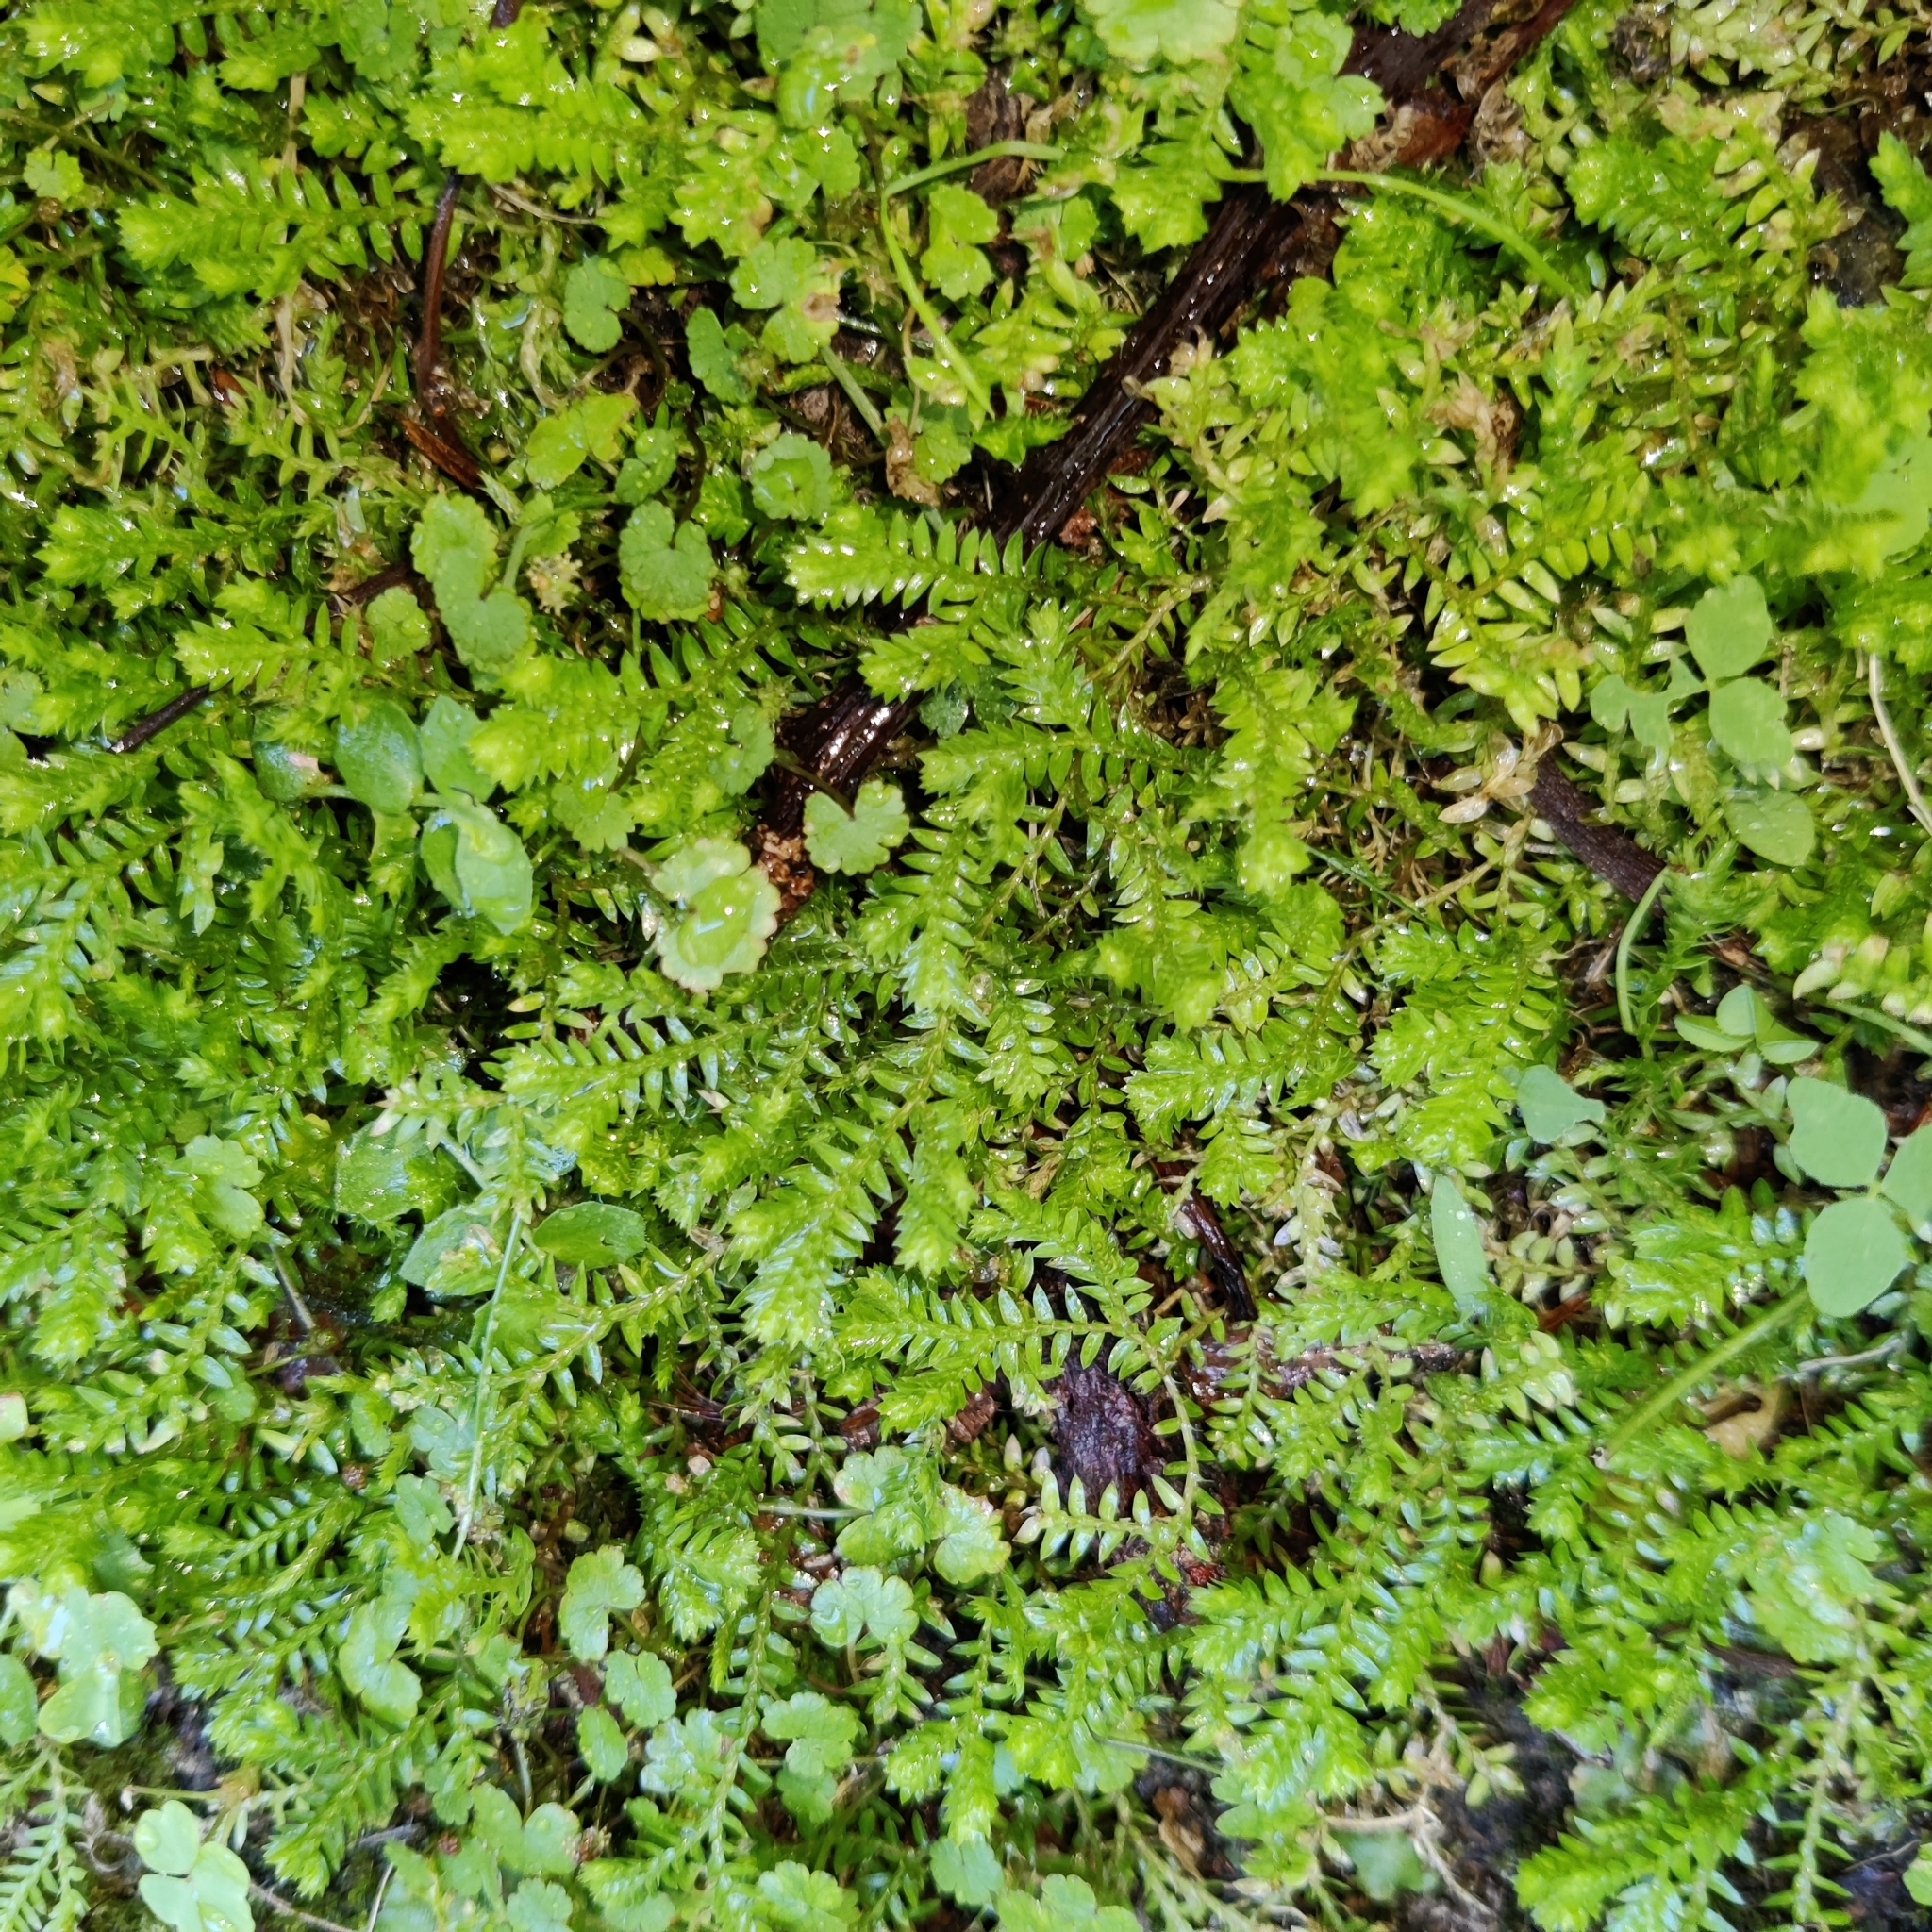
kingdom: Plantae
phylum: Tracheophyta
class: Lycopodiopsida
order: Selaginellales
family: Selaginellaceae
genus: Selaginella
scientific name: Selaginella kraussiana
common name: Krauss' spikemoss
